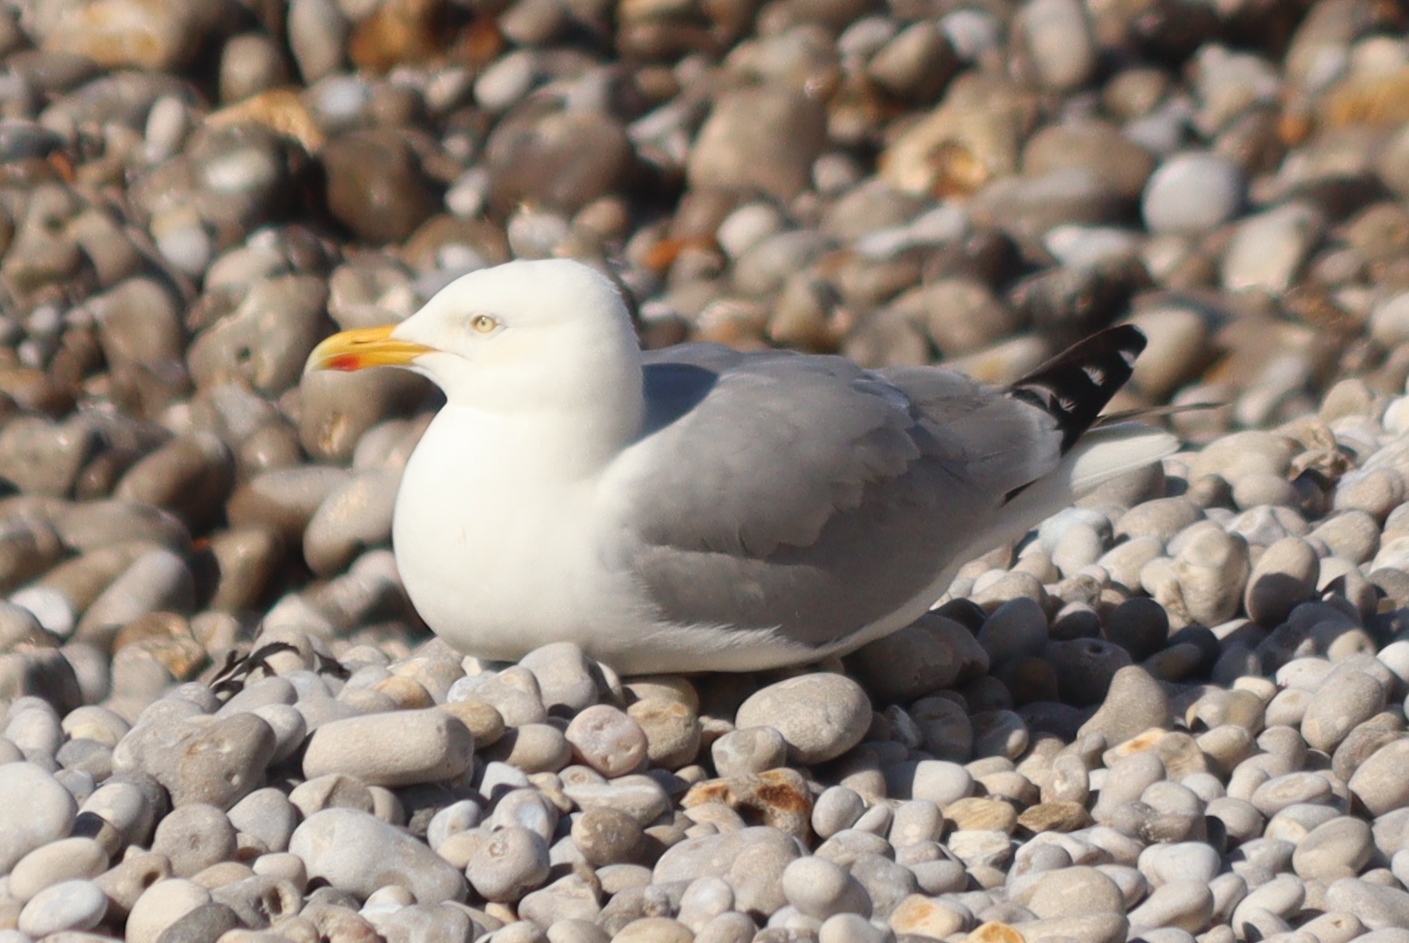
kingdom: Animalia
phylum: Chordata
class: Aves
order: Charadriiformes
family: Laridae
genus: Larus
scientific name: Larus argentatus
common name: Herring gull
